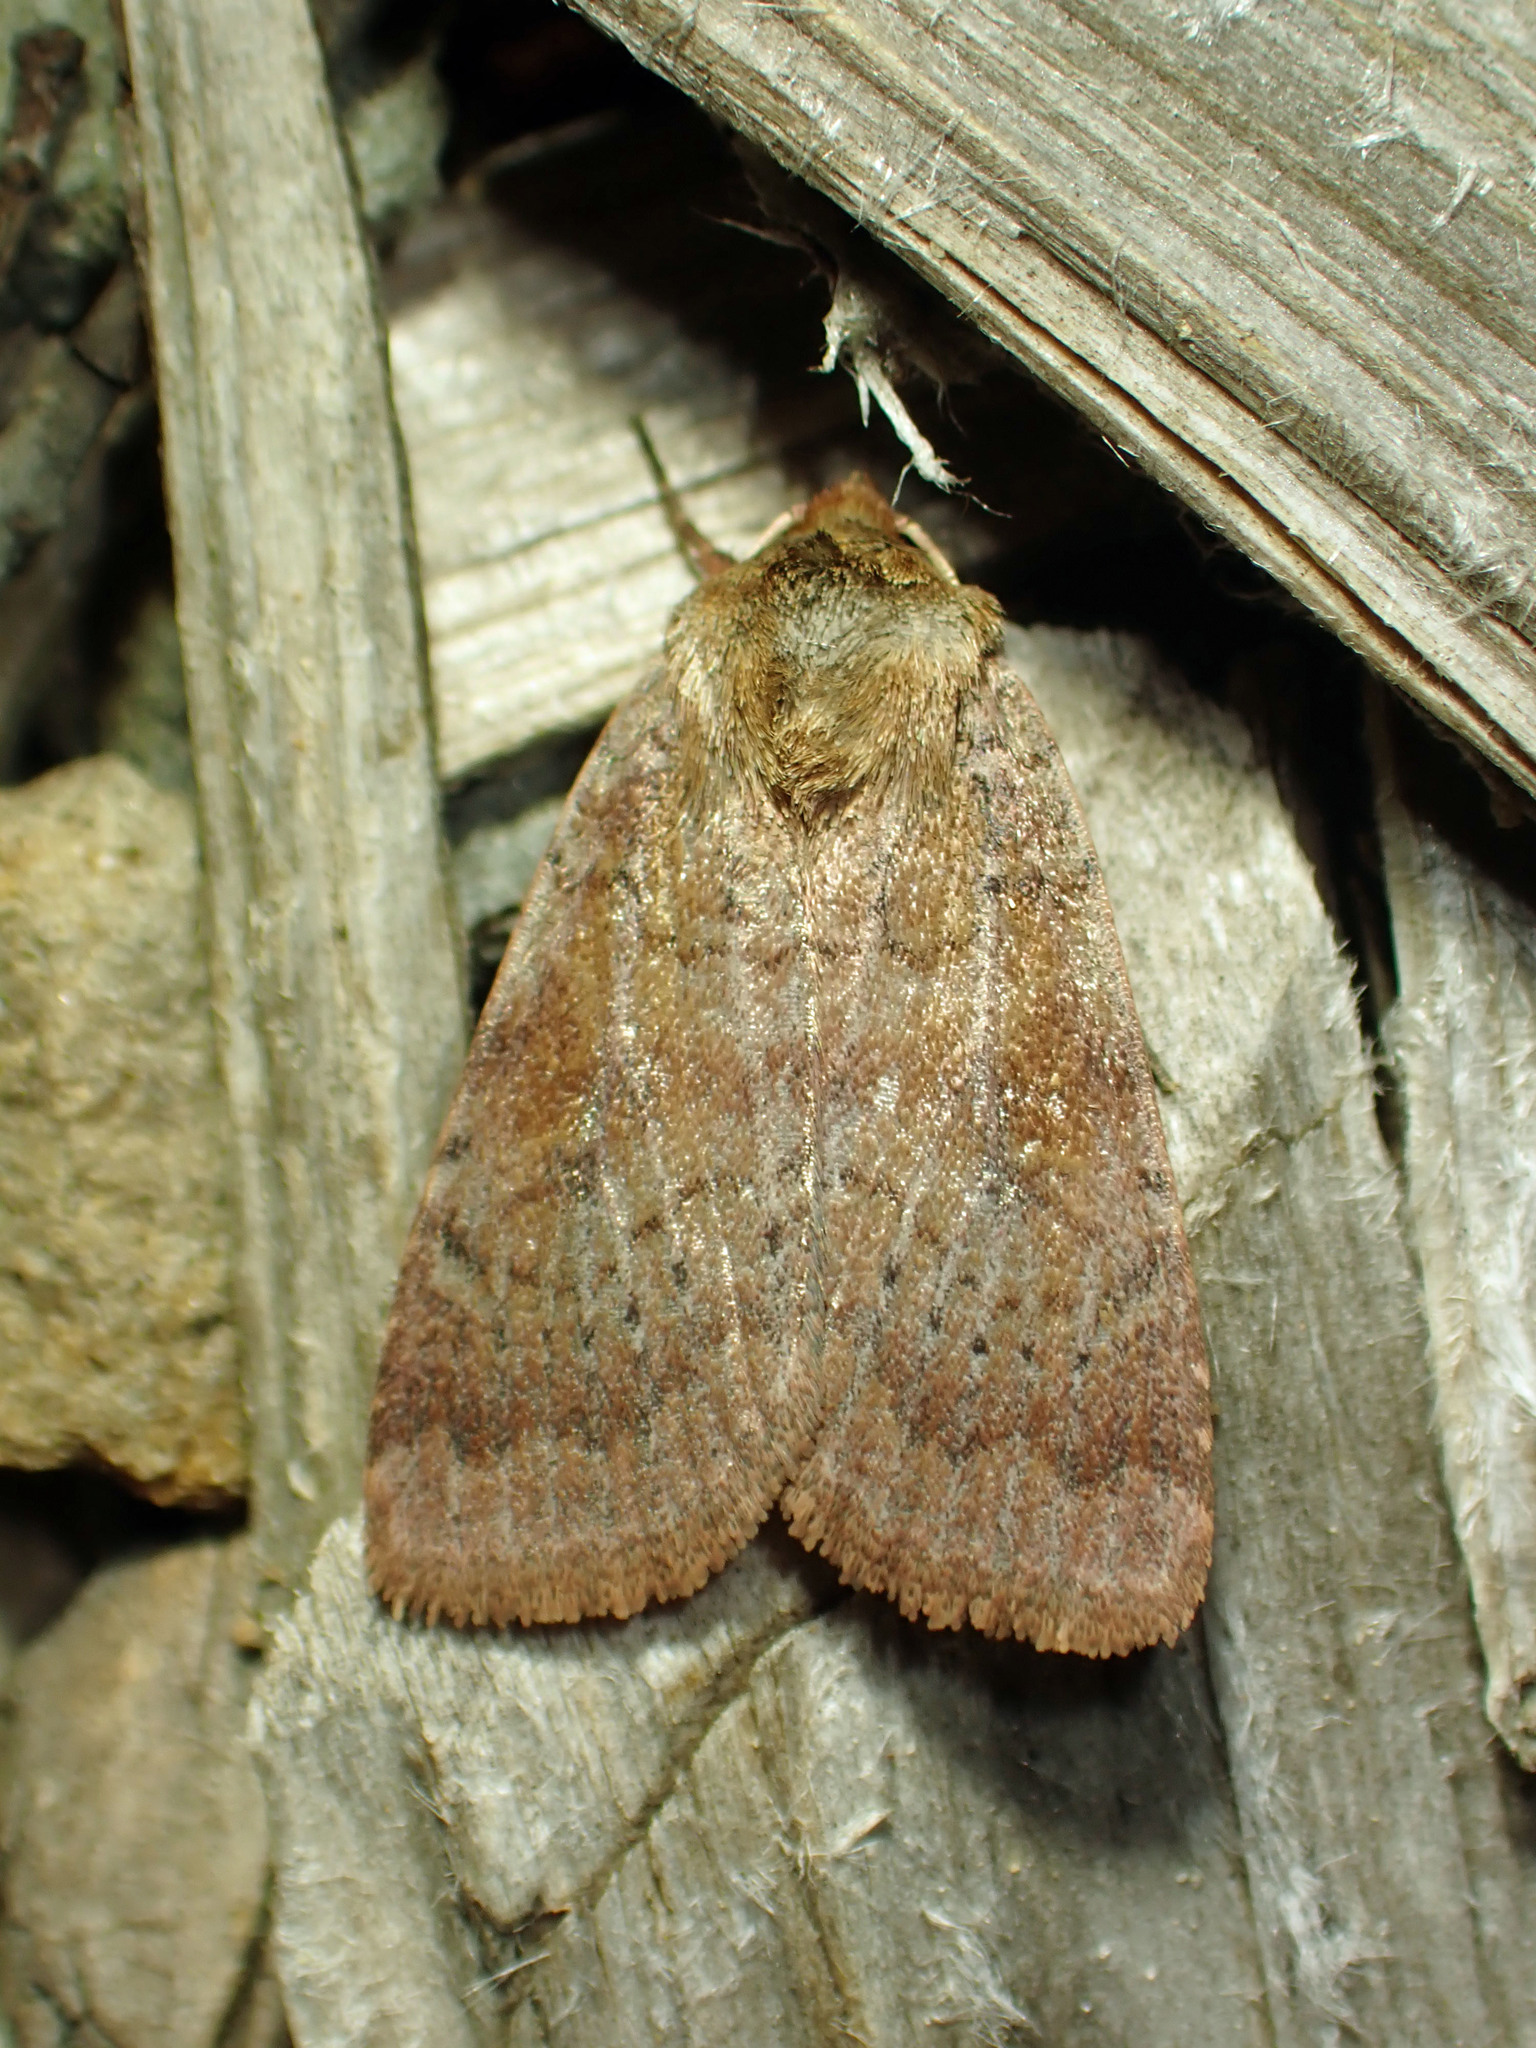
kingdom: Animalia
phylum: Arthropoda
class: Insecta
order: Lepidoptera
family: Noctuidae
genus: Lycophotia
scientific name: Lycophotia phyllophora
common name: Lycophotia moth
